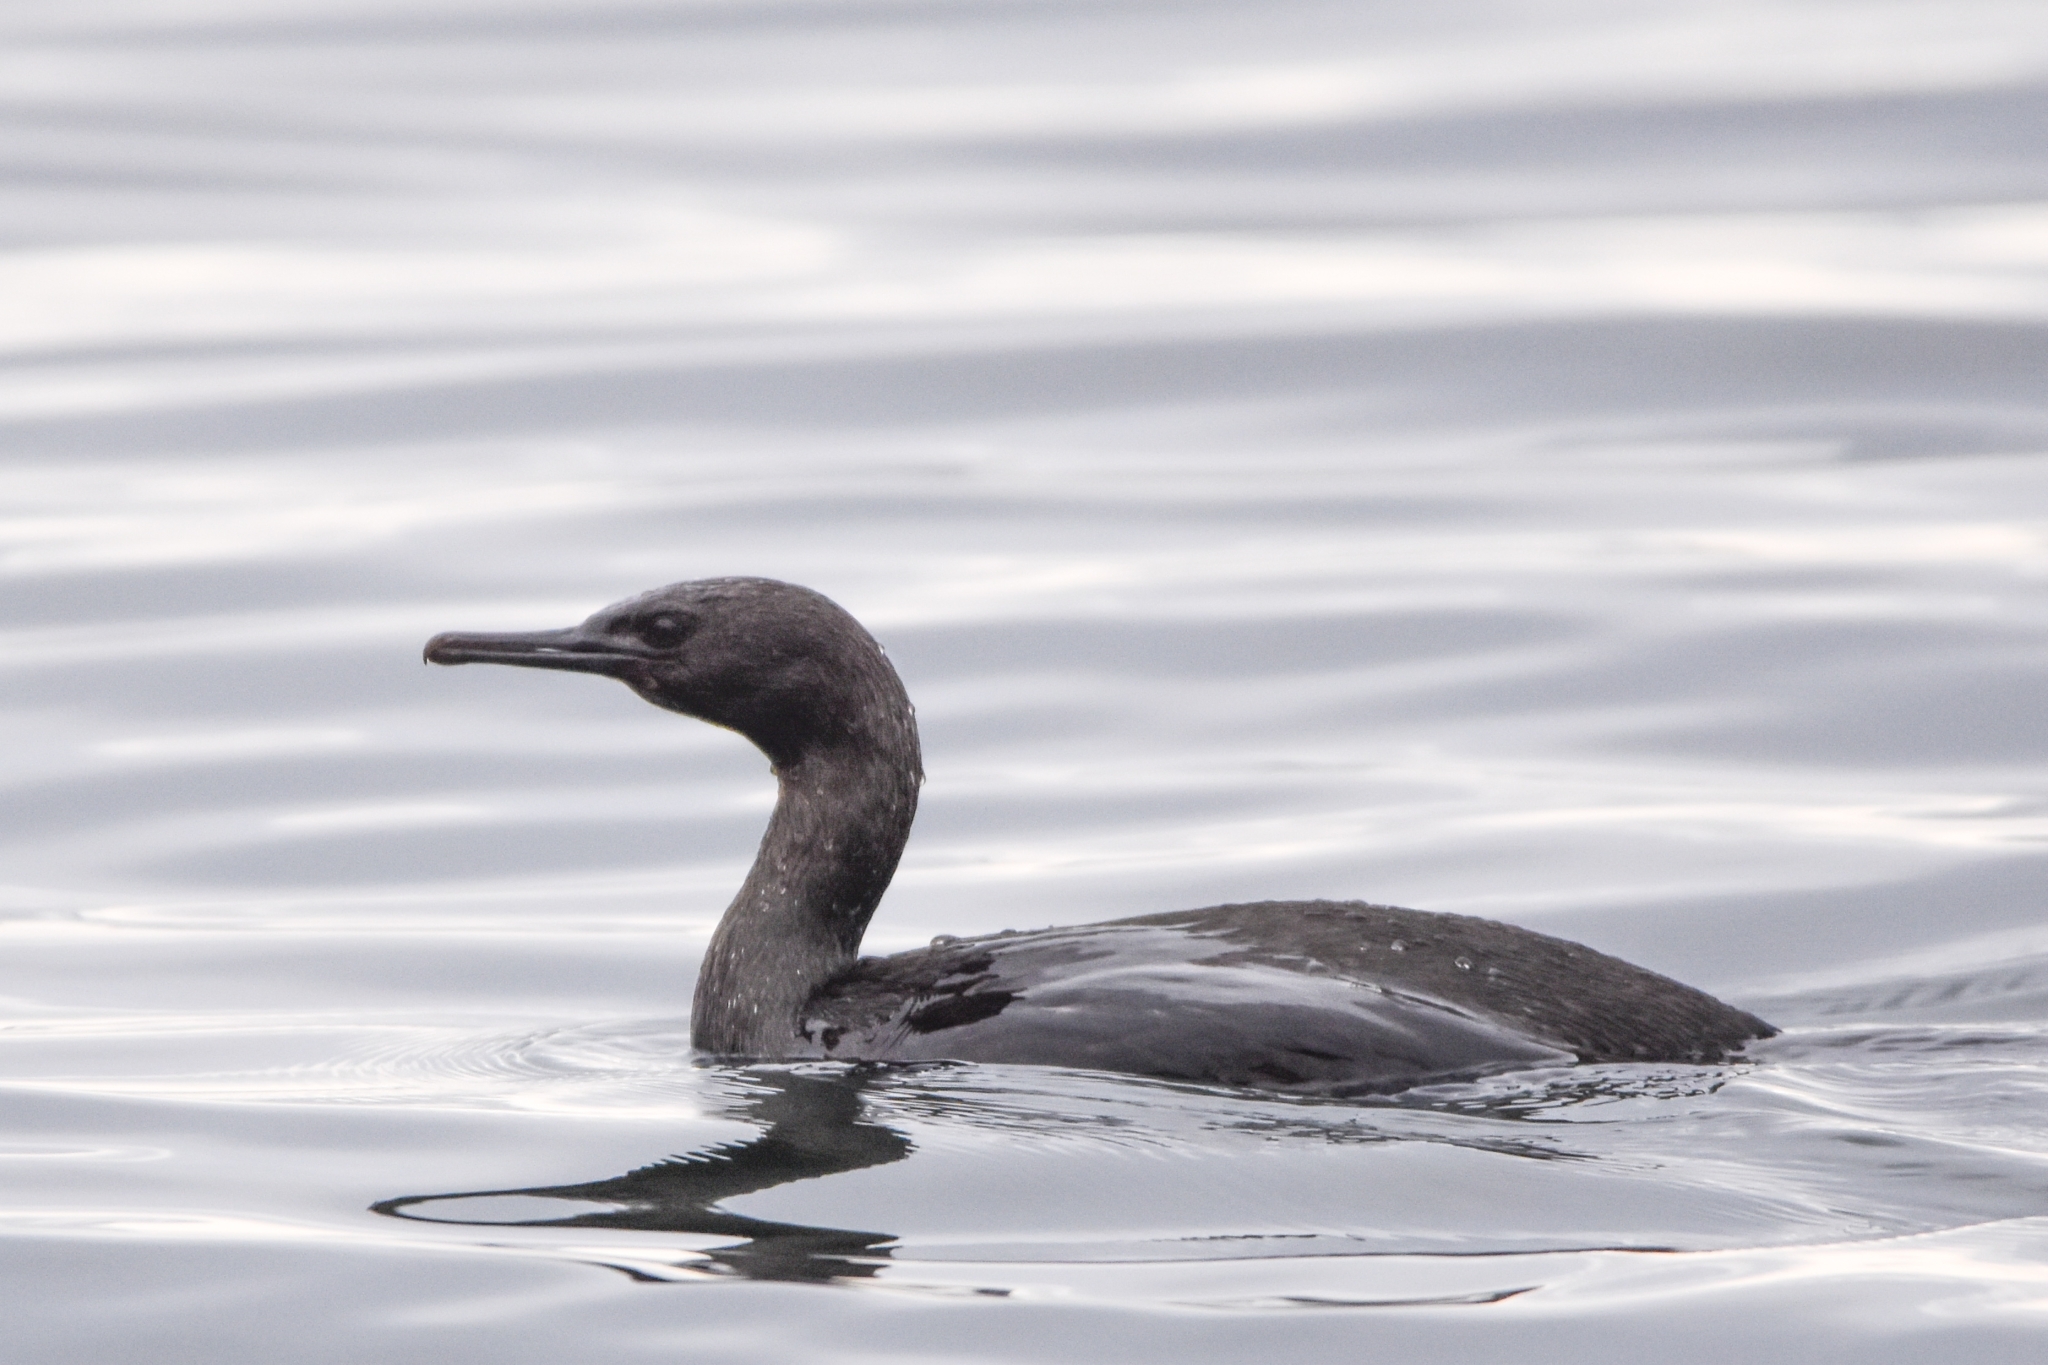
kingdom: Animalia
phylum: Chordata
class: Aves
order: Suliformes
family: Phalacrocoracidae
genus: Phalacrocorax
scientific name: Phalacrocorax pelagicus
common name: Pelagic cormorant
